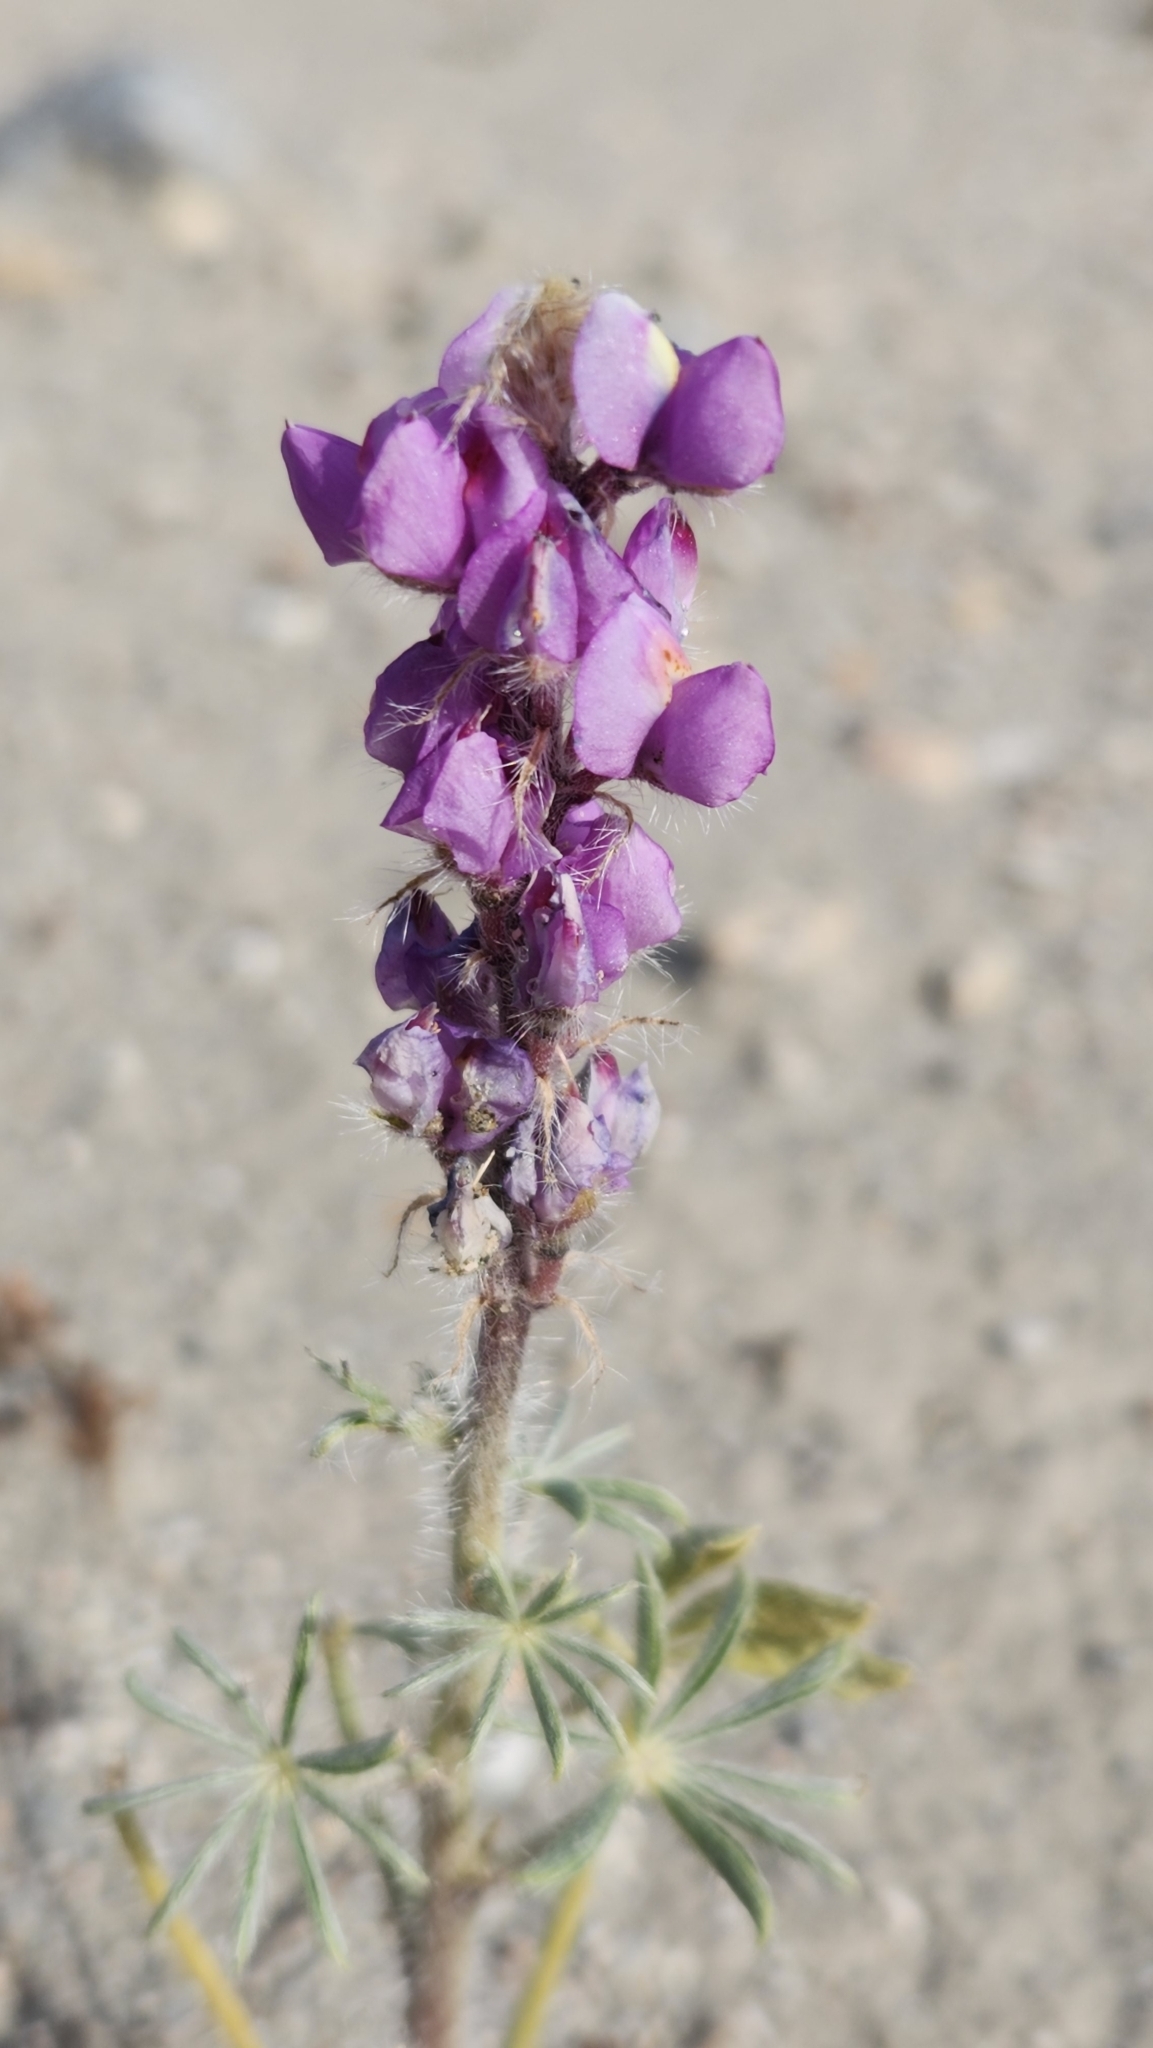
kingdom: Plantae
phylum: Tracheophyta
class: Magnoliopsida
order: Fabales
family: Fabaceae
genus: Lupinus
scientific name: Lupinus arizonicus
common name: Arizona lupine
